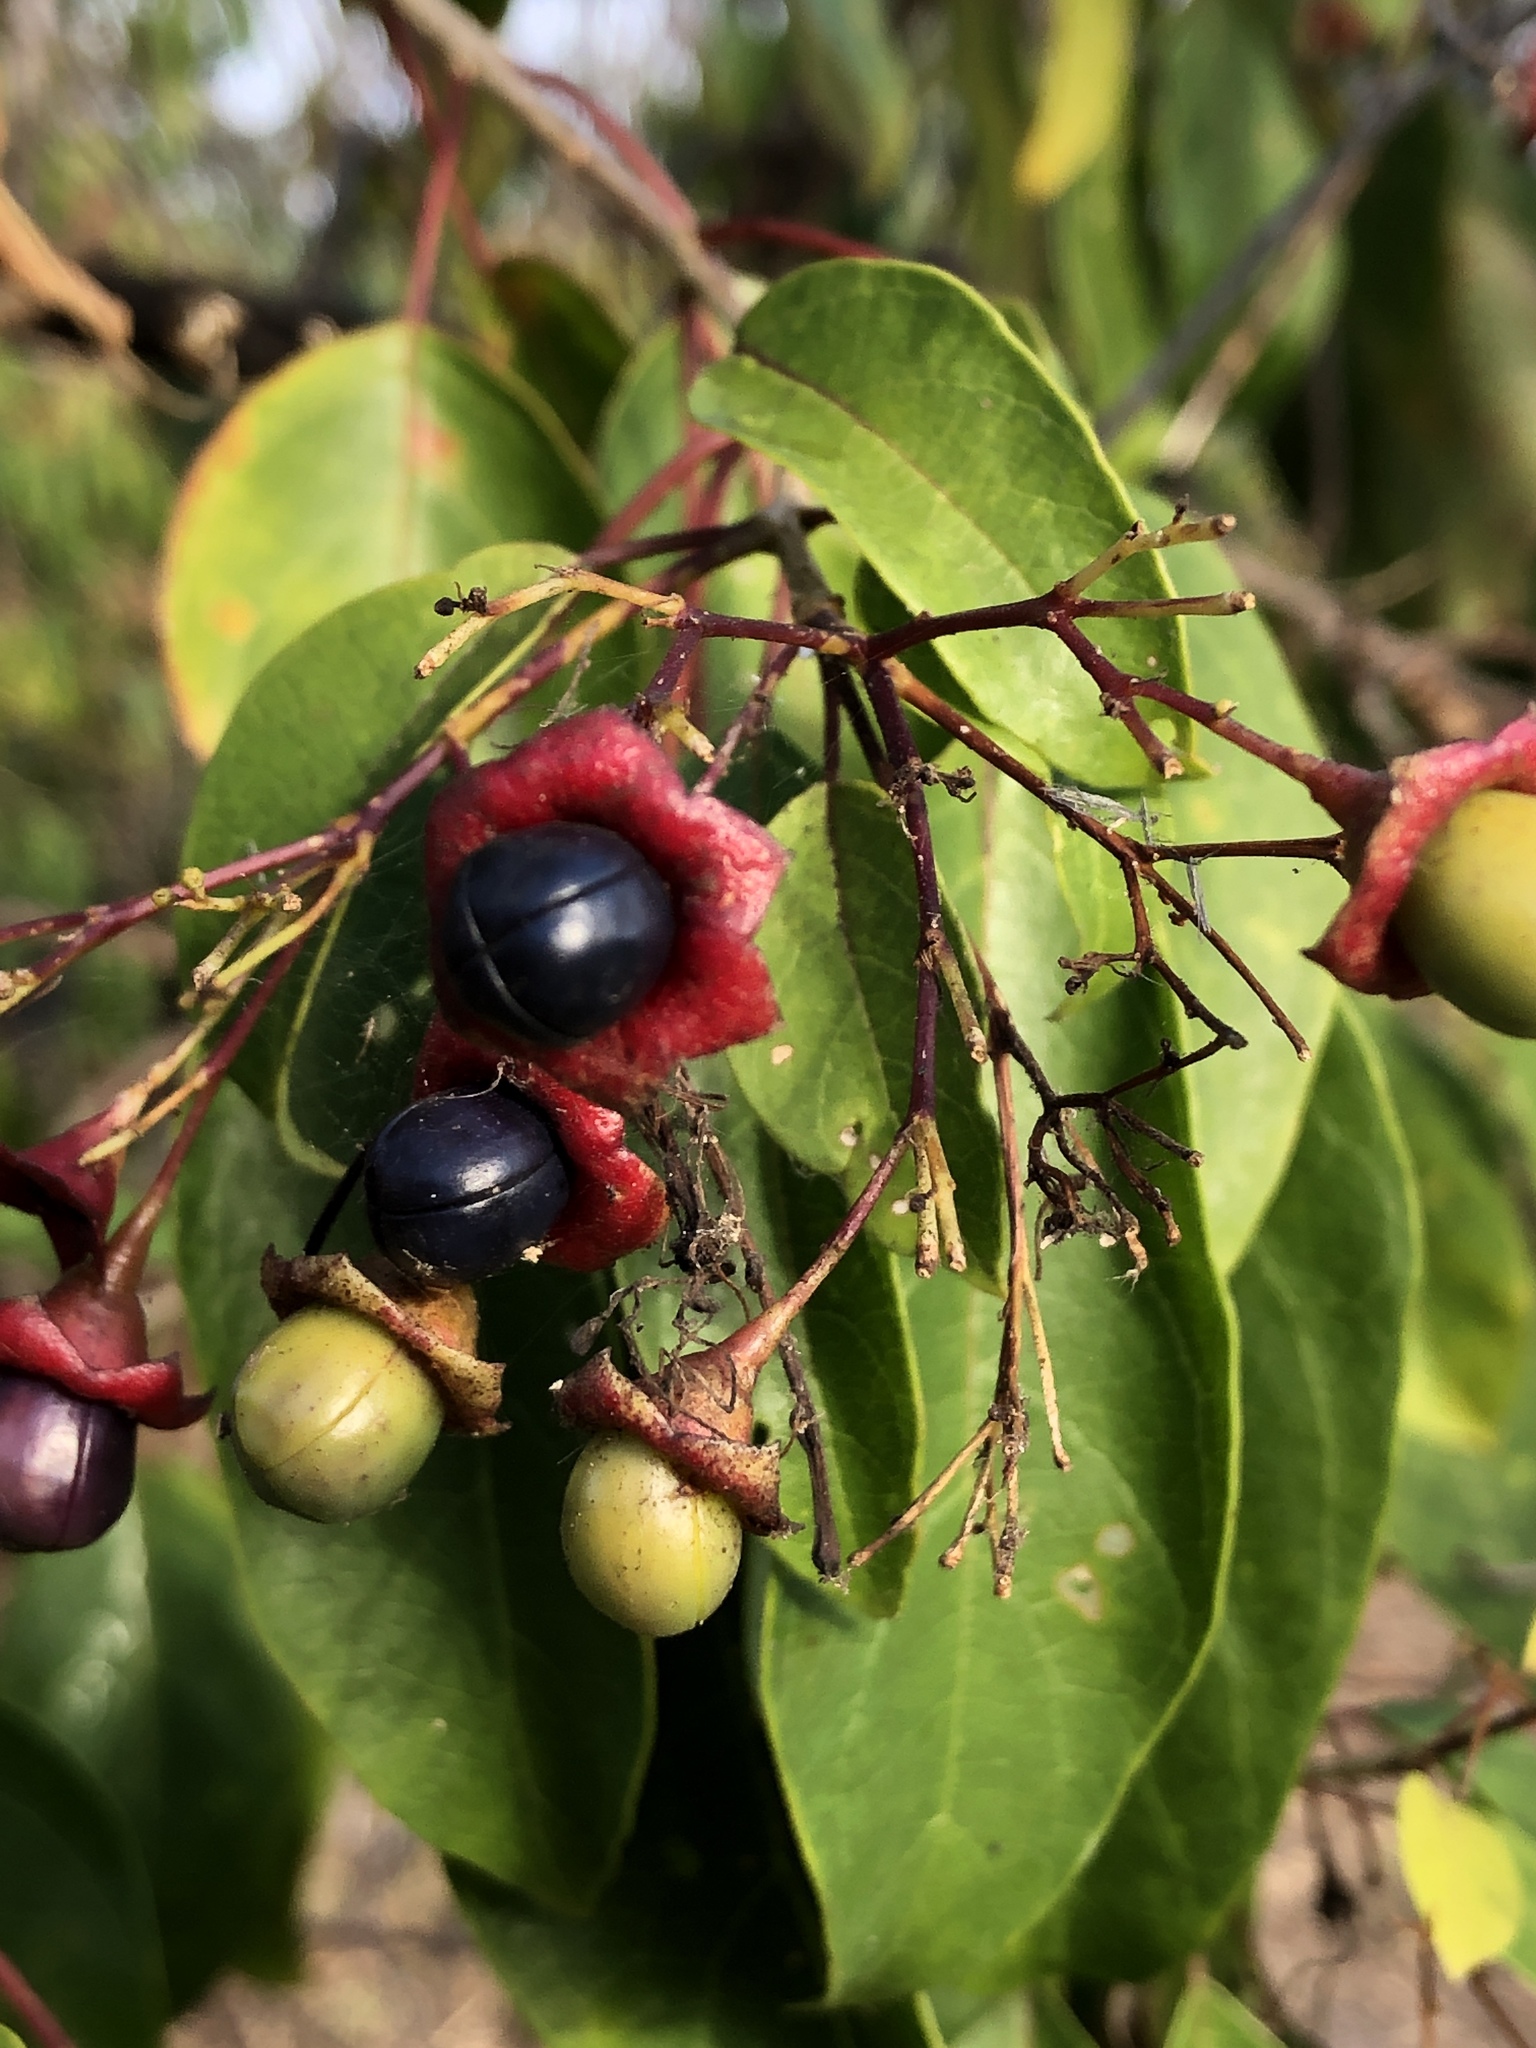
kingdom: Plantae
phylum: Tracheophyta
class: Magnoliopsida
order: Lamiales
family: Lamiaceae
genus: Clerodendrum
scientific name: Clerodendrum floribundum
